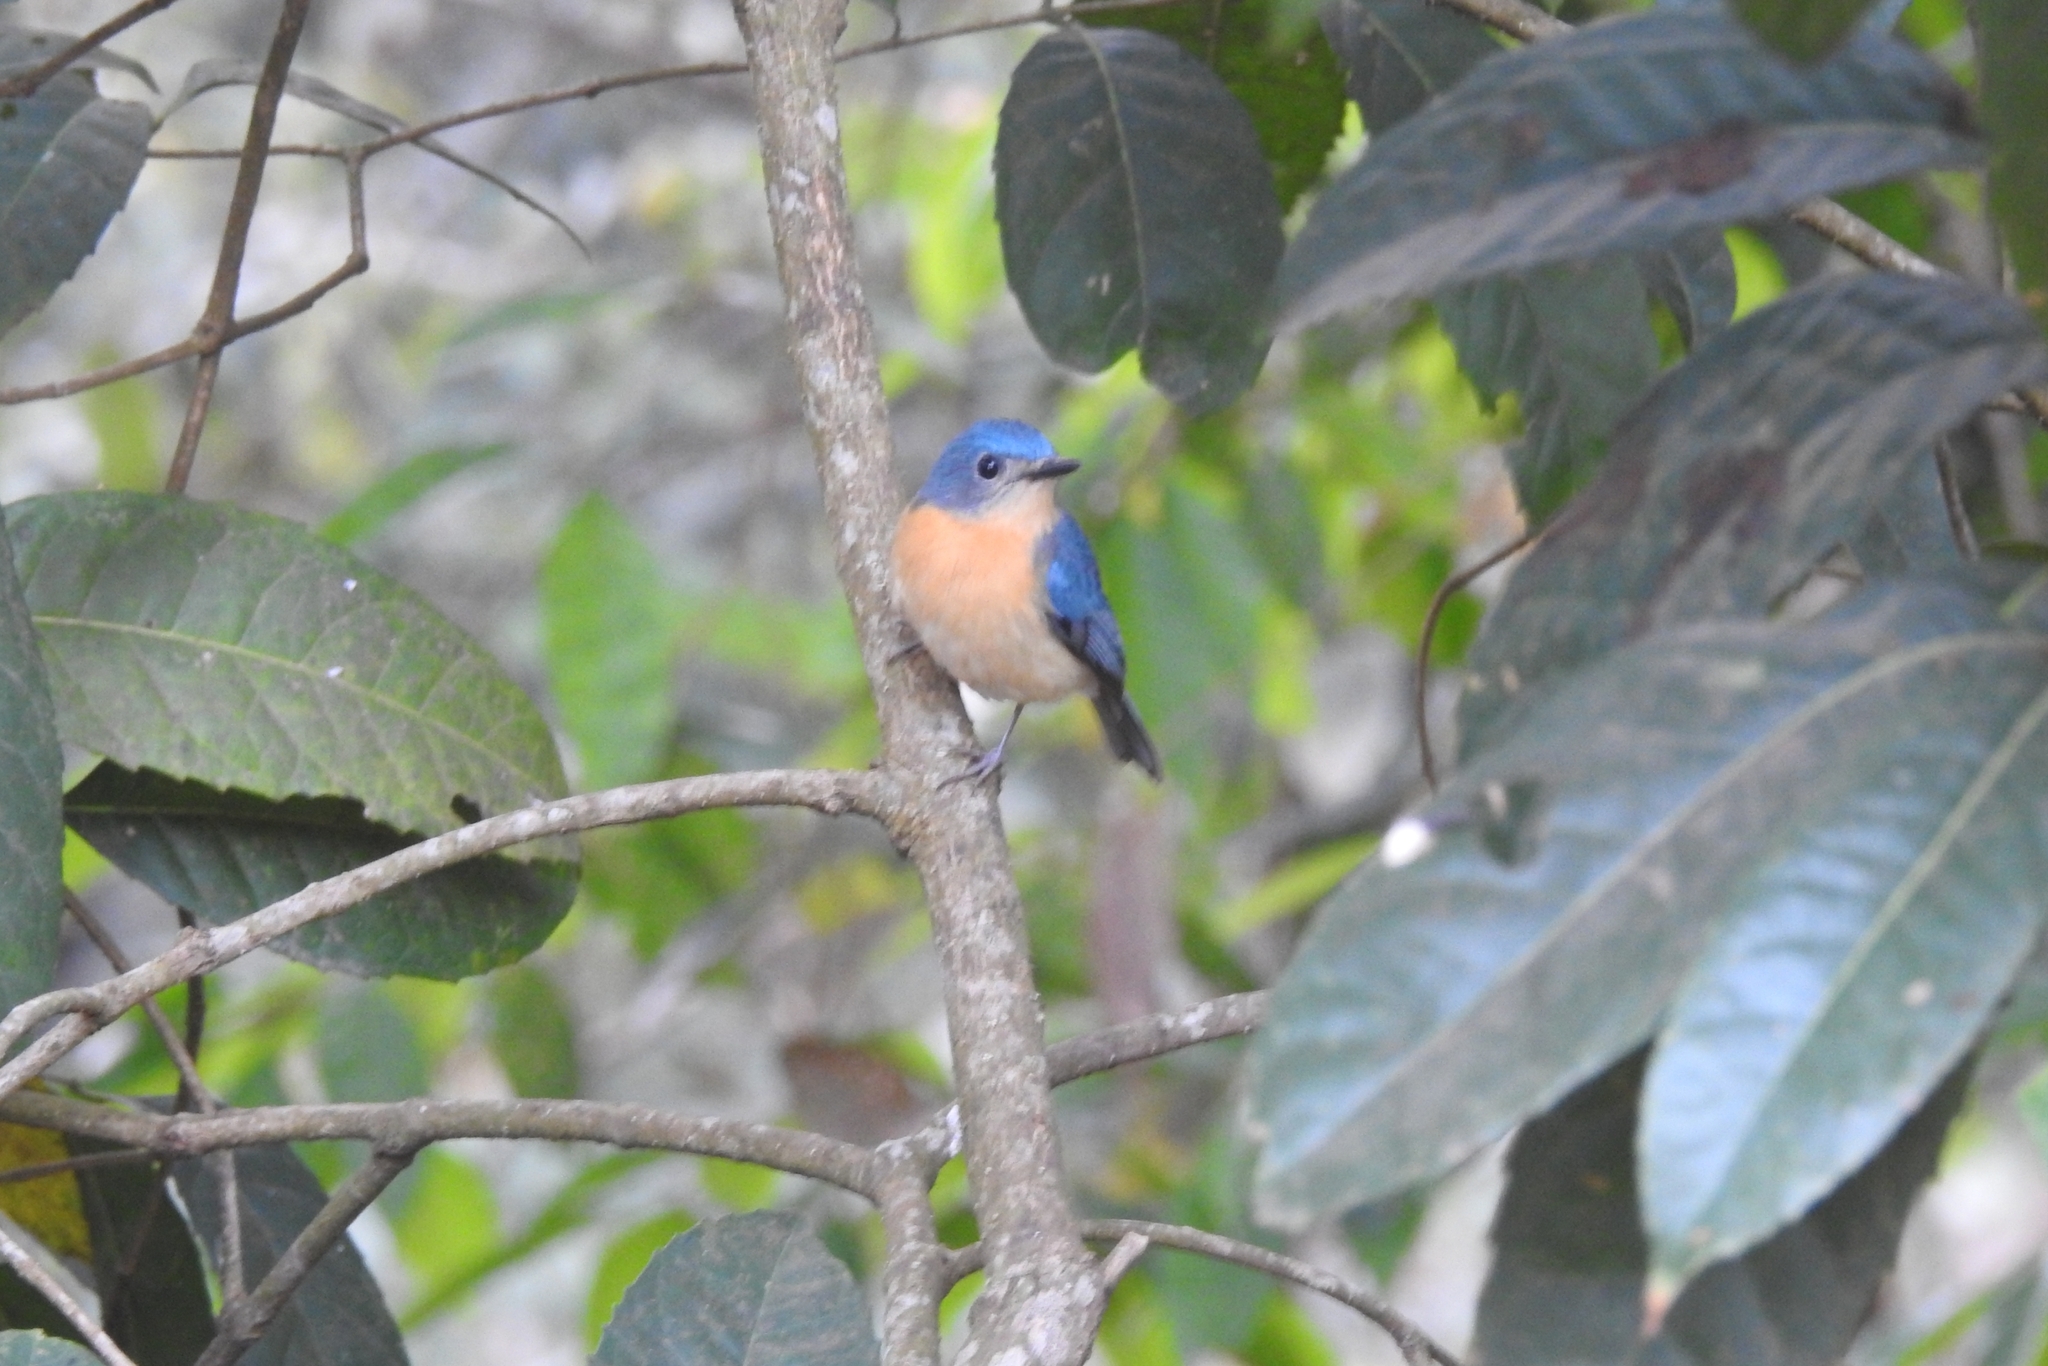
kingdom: Animalia
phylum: Chordata
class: Aves
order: Passeriformes
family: Muscicapidae
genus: Cyornis
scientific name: Cyornis tickelliae
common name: Tickell's blue flycatcher
